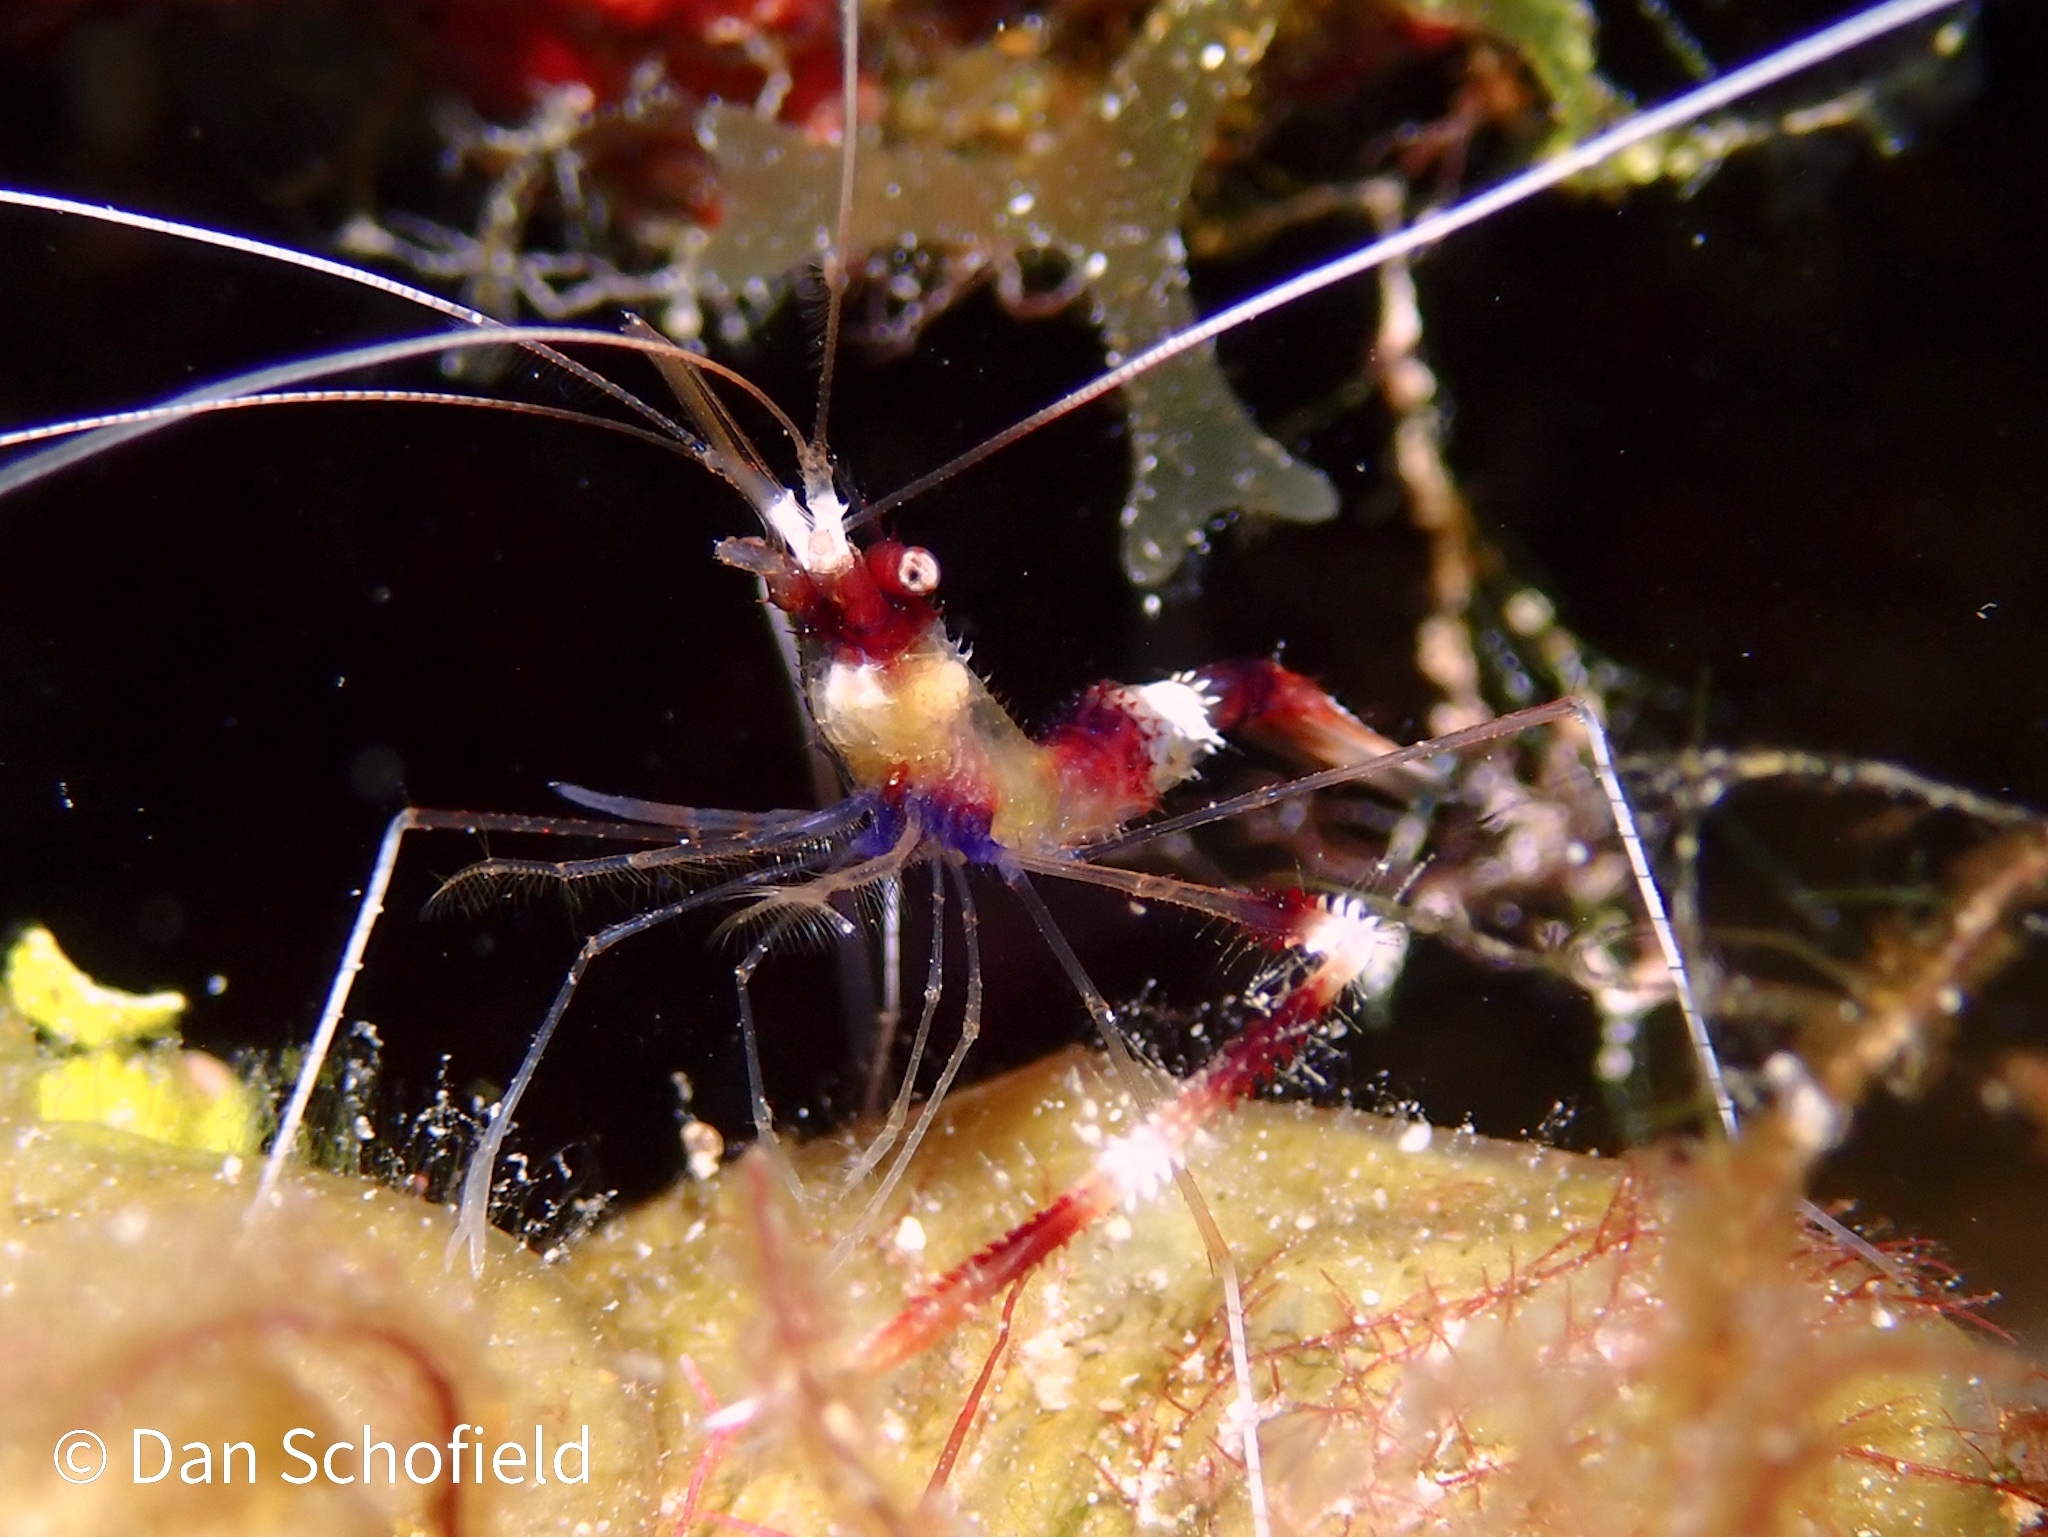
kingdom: Animalia
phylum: Arthropoda
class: Malacostraca
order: Decapoda
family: Stenopodidae
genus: Stenopus
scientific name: Stenopus hispidus
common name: Banded coral shrimp
